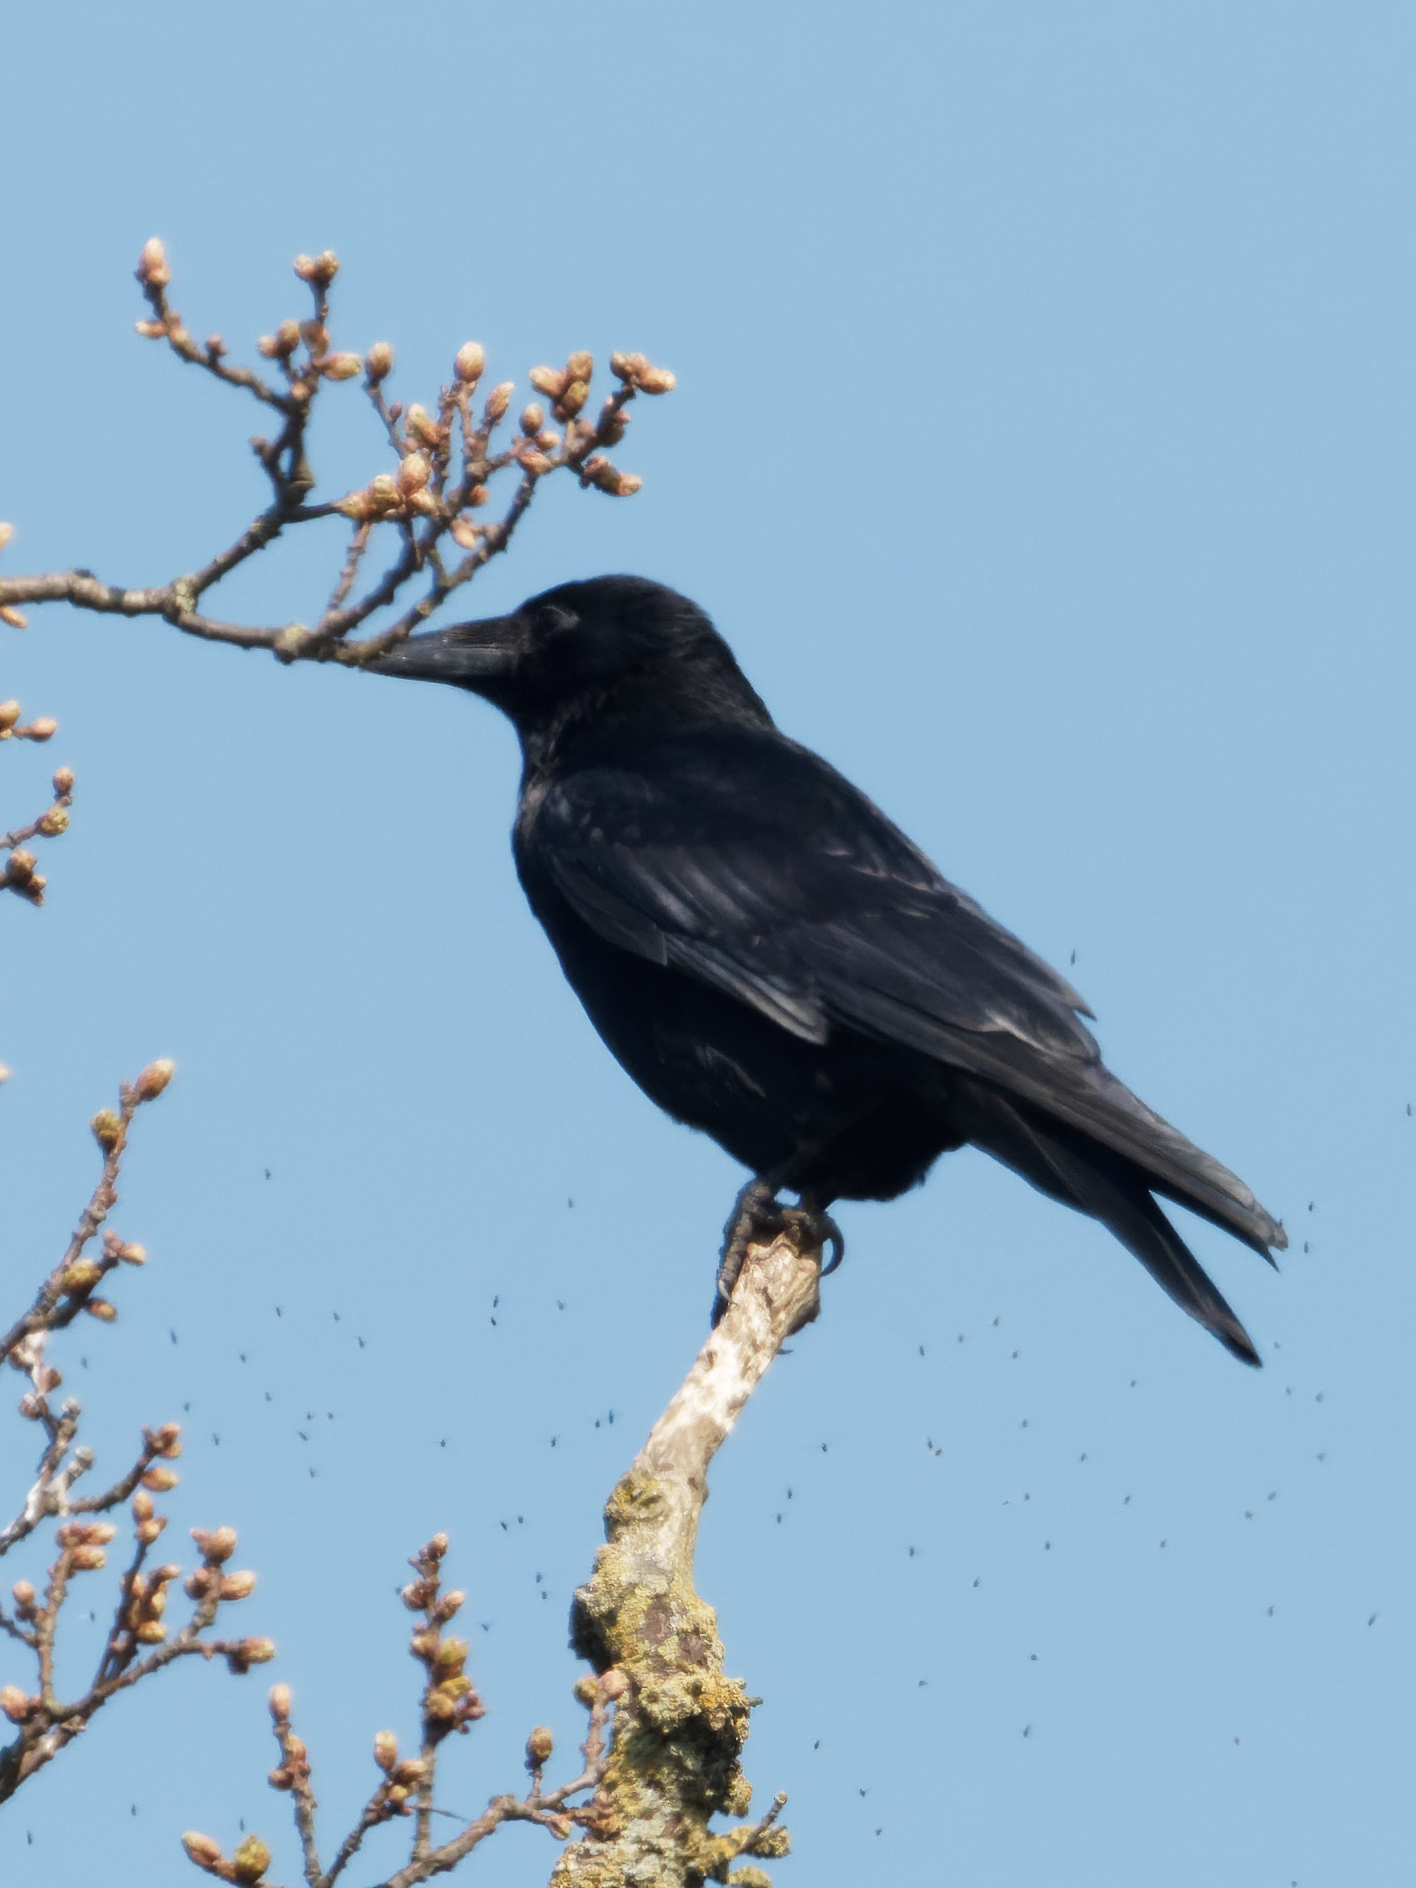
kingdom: Animalia
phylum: Chordata
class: Aves
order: Passeriformes
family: Corvidae
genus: Corvus
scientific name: Corvus corone
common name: Carrion crow
